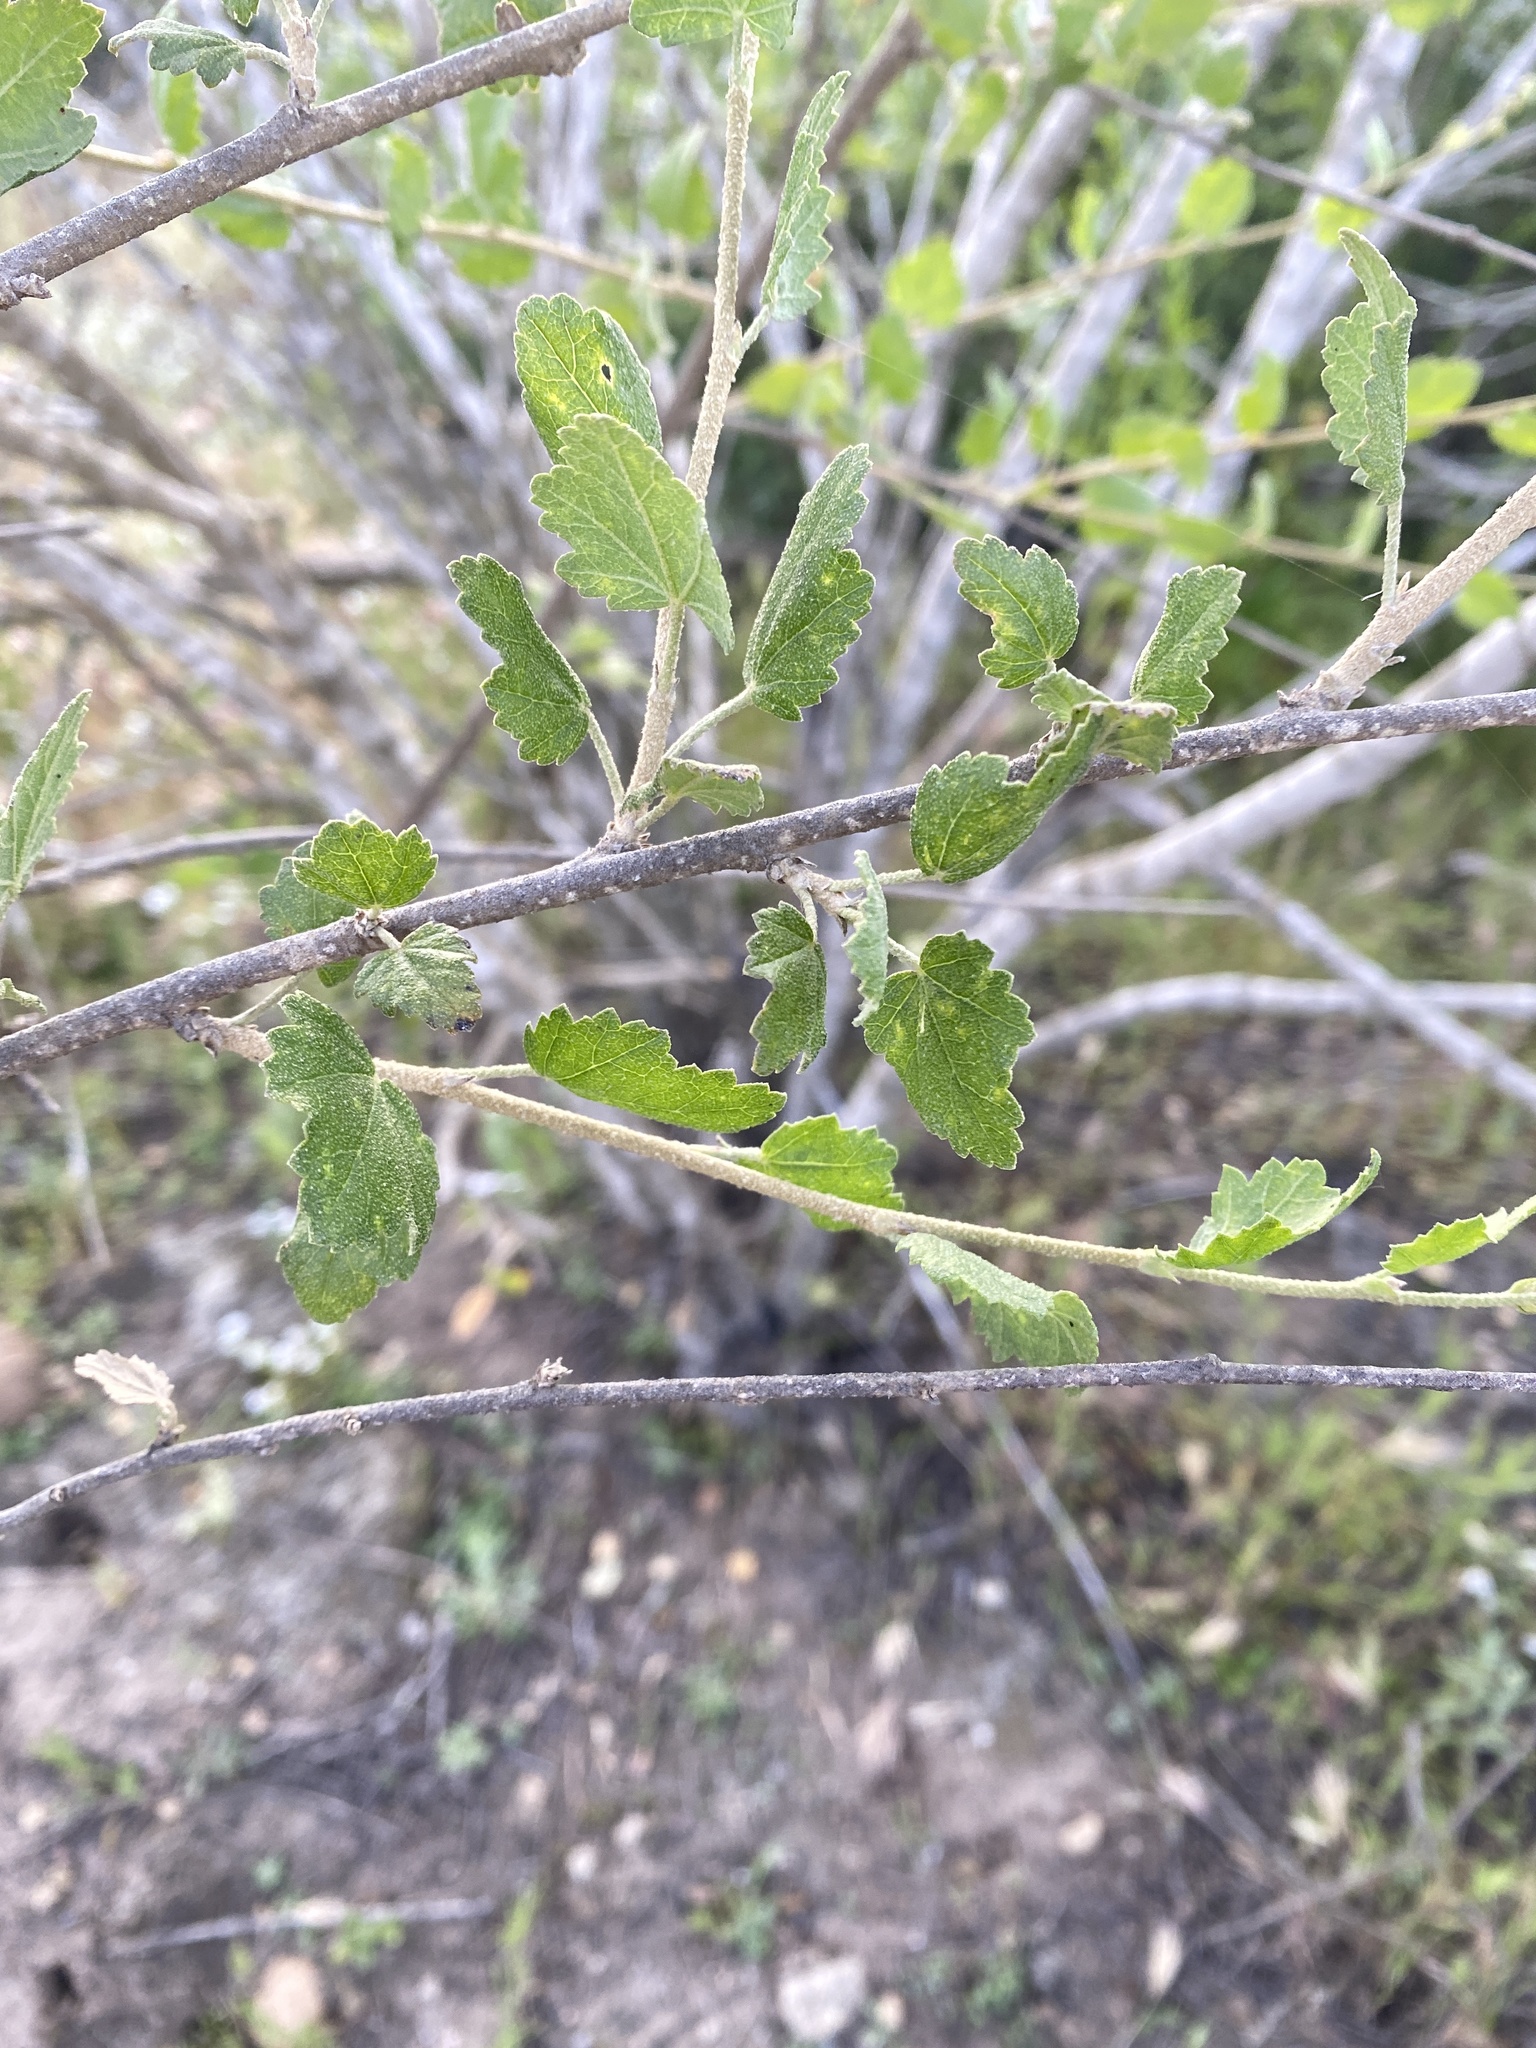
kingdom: Plantae
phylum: Tracheophyta
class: Magnoliopsida
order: Malvales
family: Malvaceae
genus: Malacothamnus
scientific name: Malacothamnus fasciculatus
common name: Sant cruz island bush-mallow
